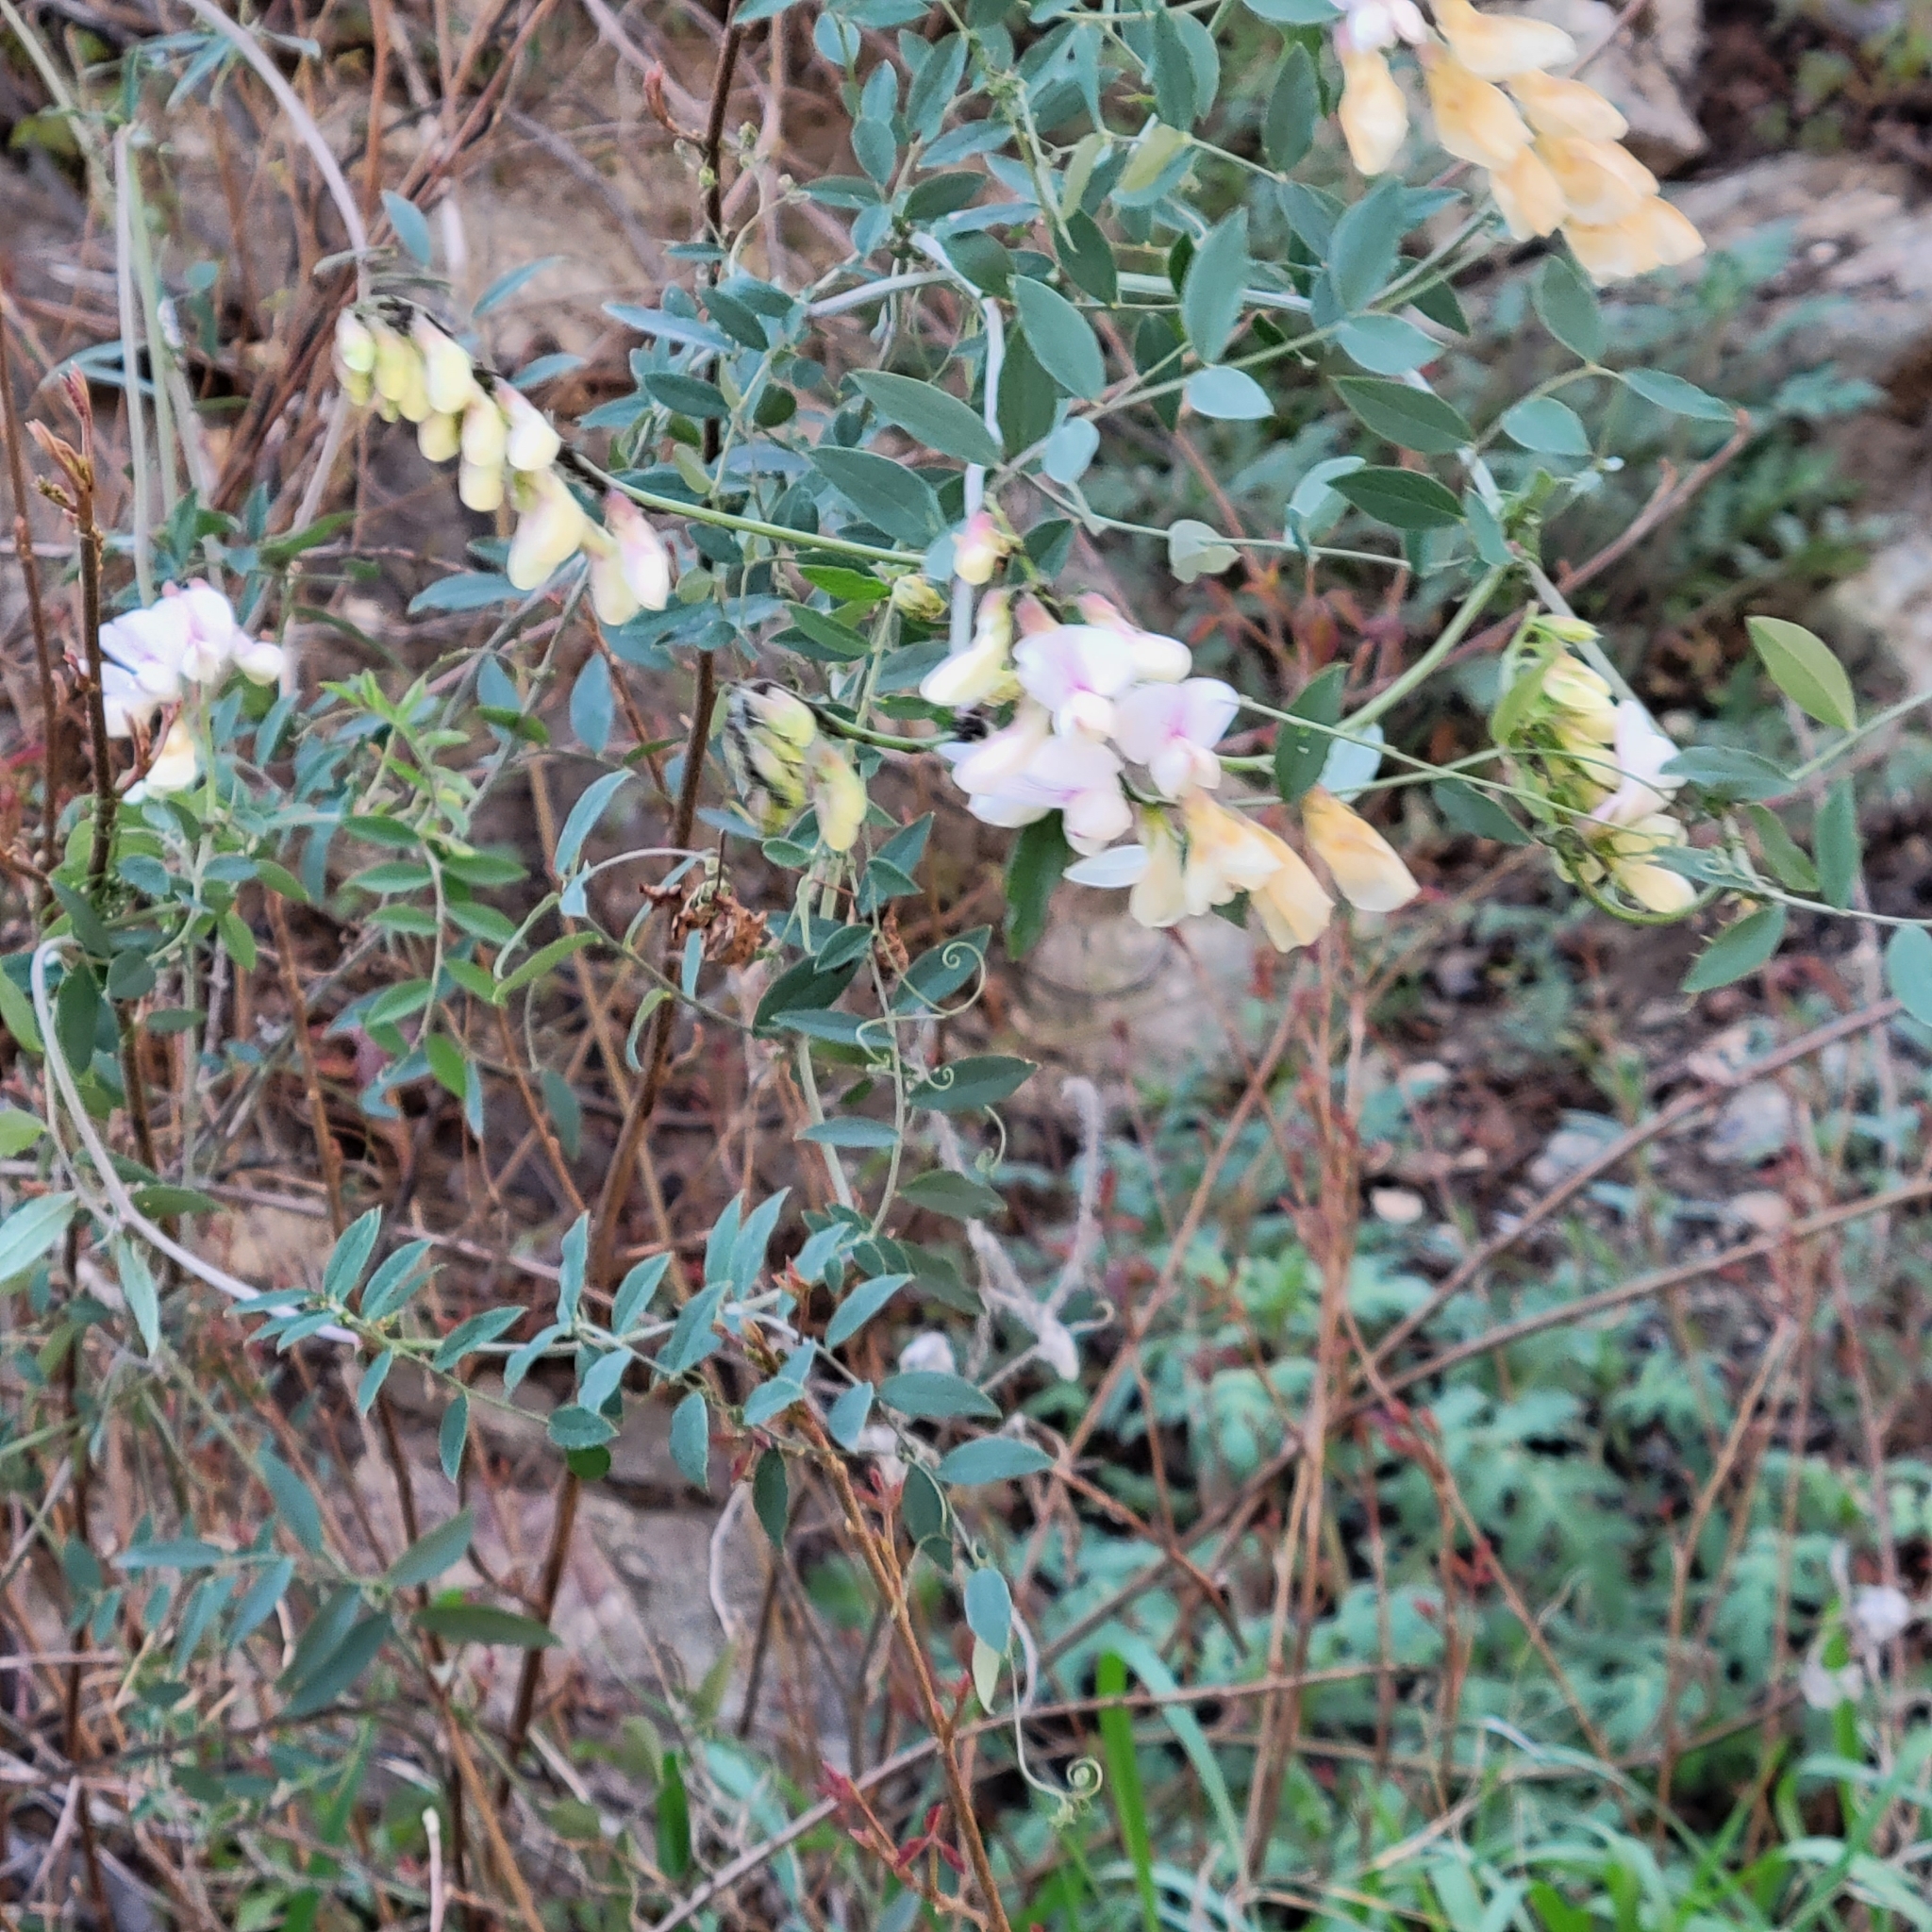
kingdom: Plantae
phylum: Tracheophyta
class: Magnoliopsida
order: Fabales
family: Fabaceae
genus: Lathyrus
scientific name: Lathyrus vestitus
